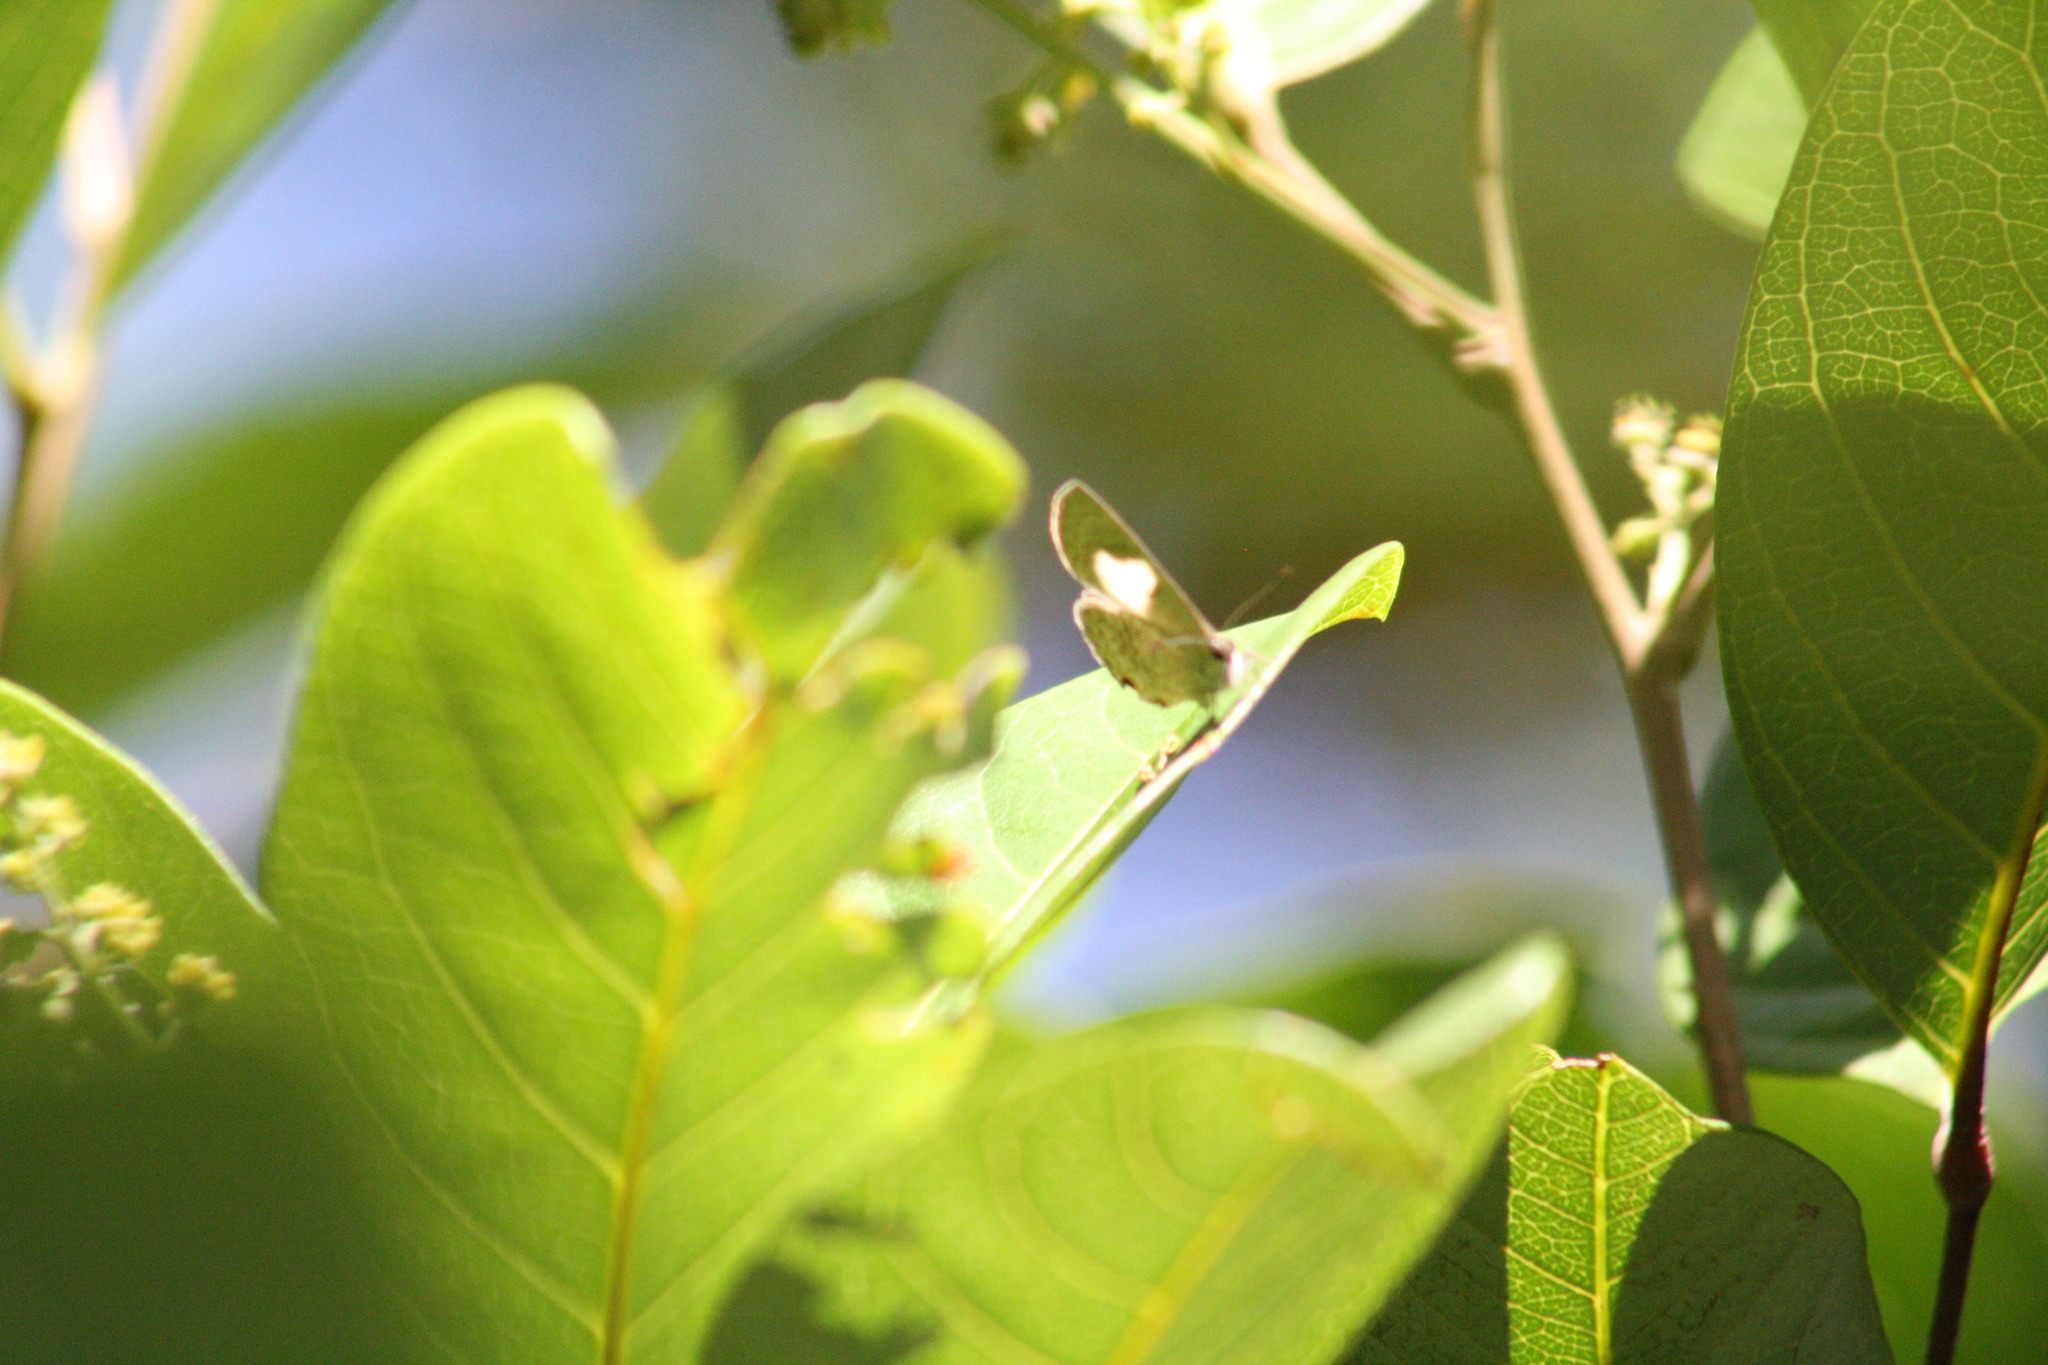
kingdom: Animalia
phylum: Arthropoda
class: Insecta
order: Lepidoptera
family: Lycaenidae
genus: Erysichton
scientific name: Erysichton lineata
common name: Hairy line blue
